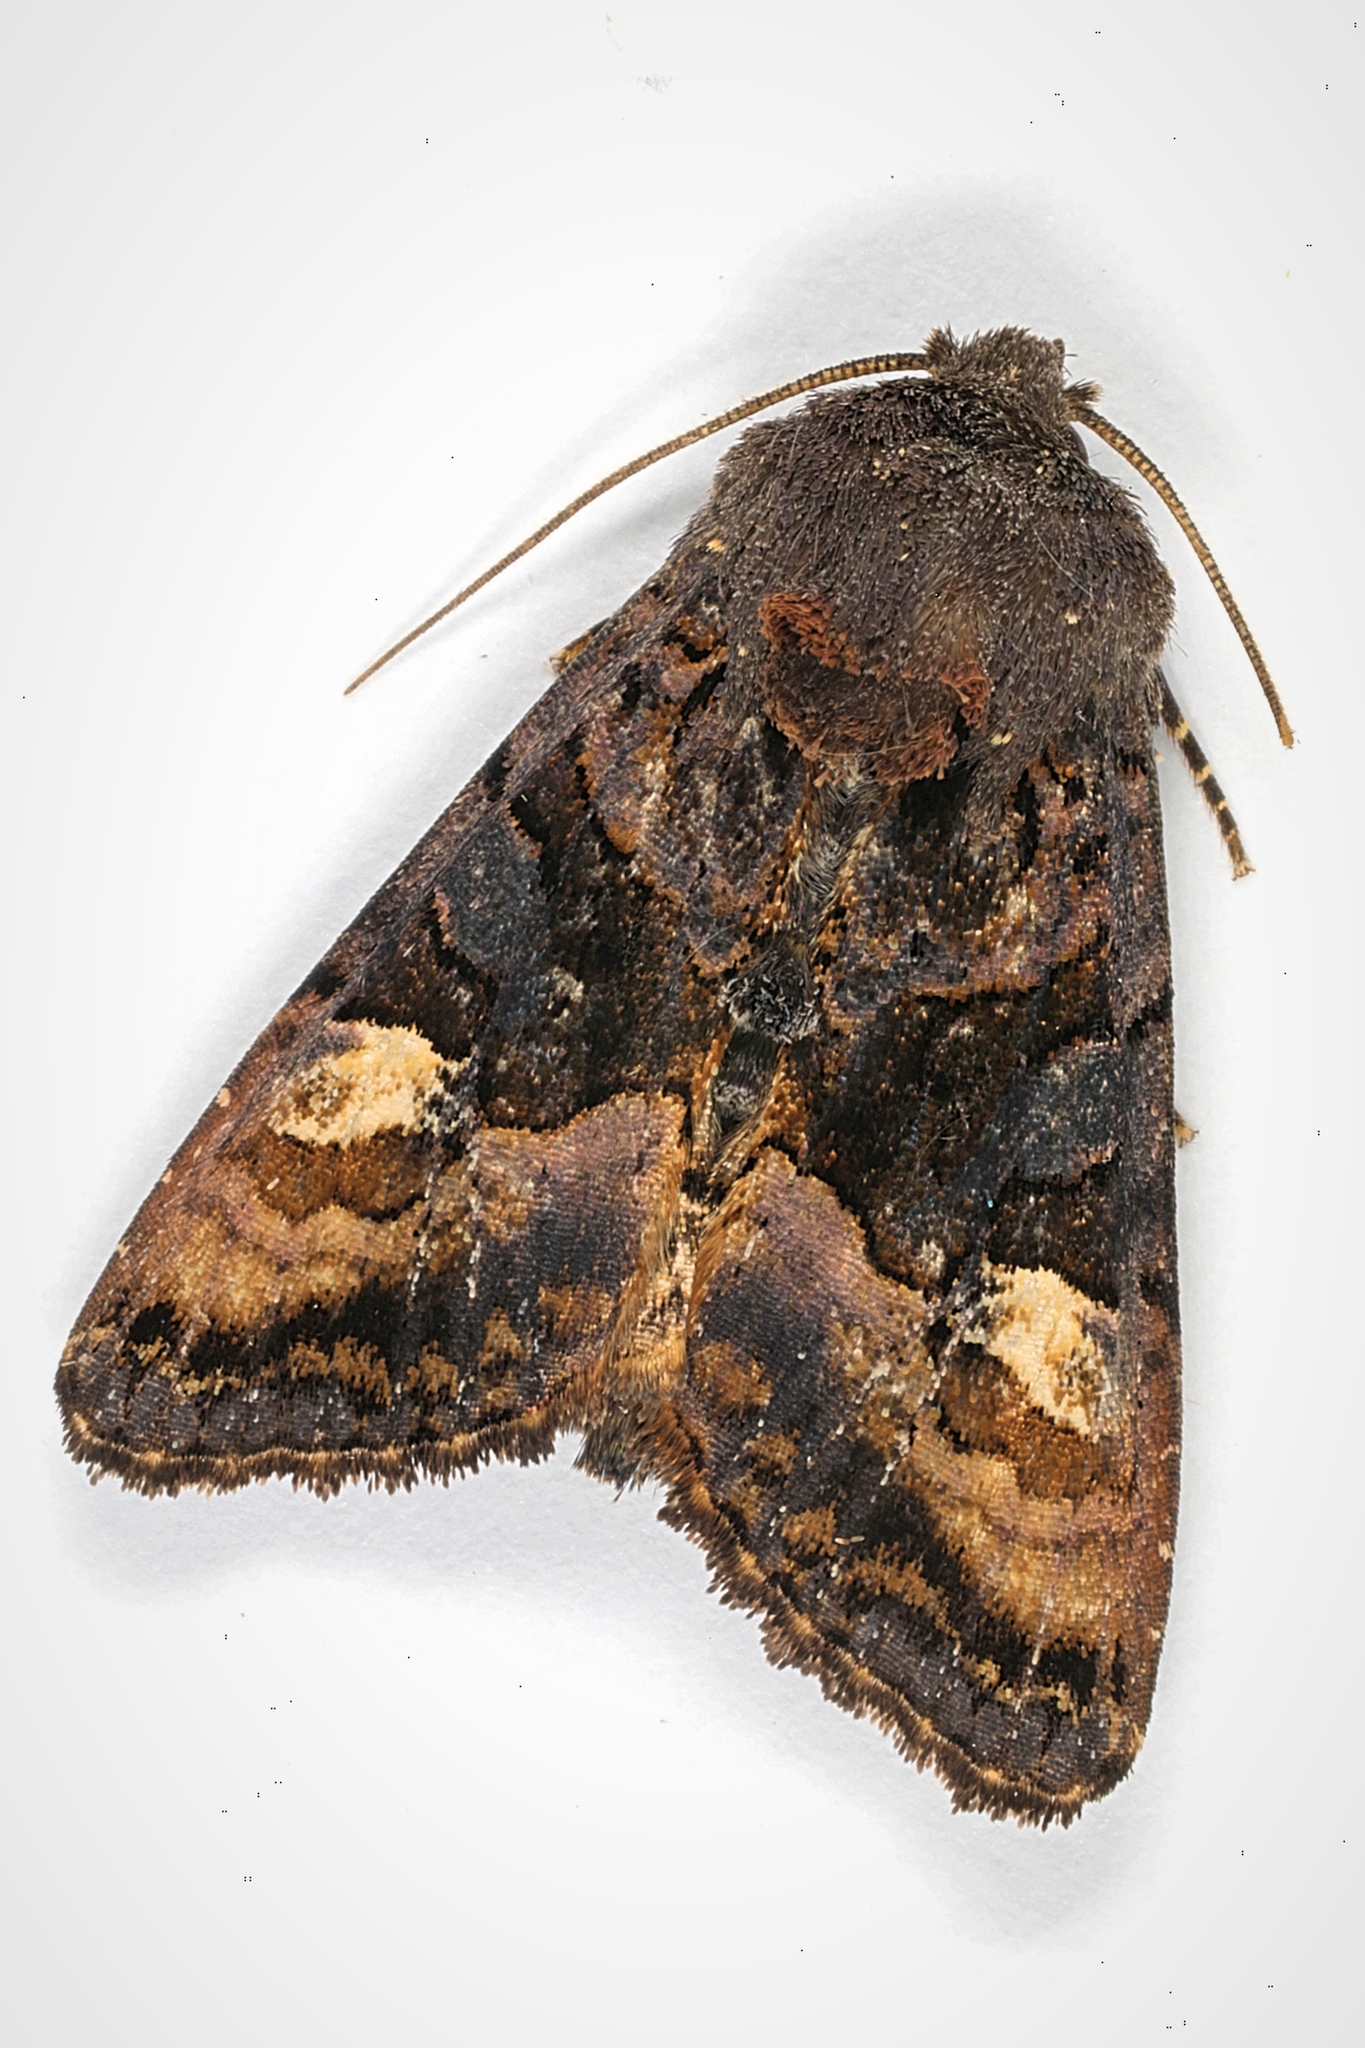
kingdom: Animalia
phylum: Arthropoda
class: Insecta
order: Lepidoptera
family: Noctuidae
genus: Euplexia
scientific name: Euplexia lucipara
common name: Small angle shades
